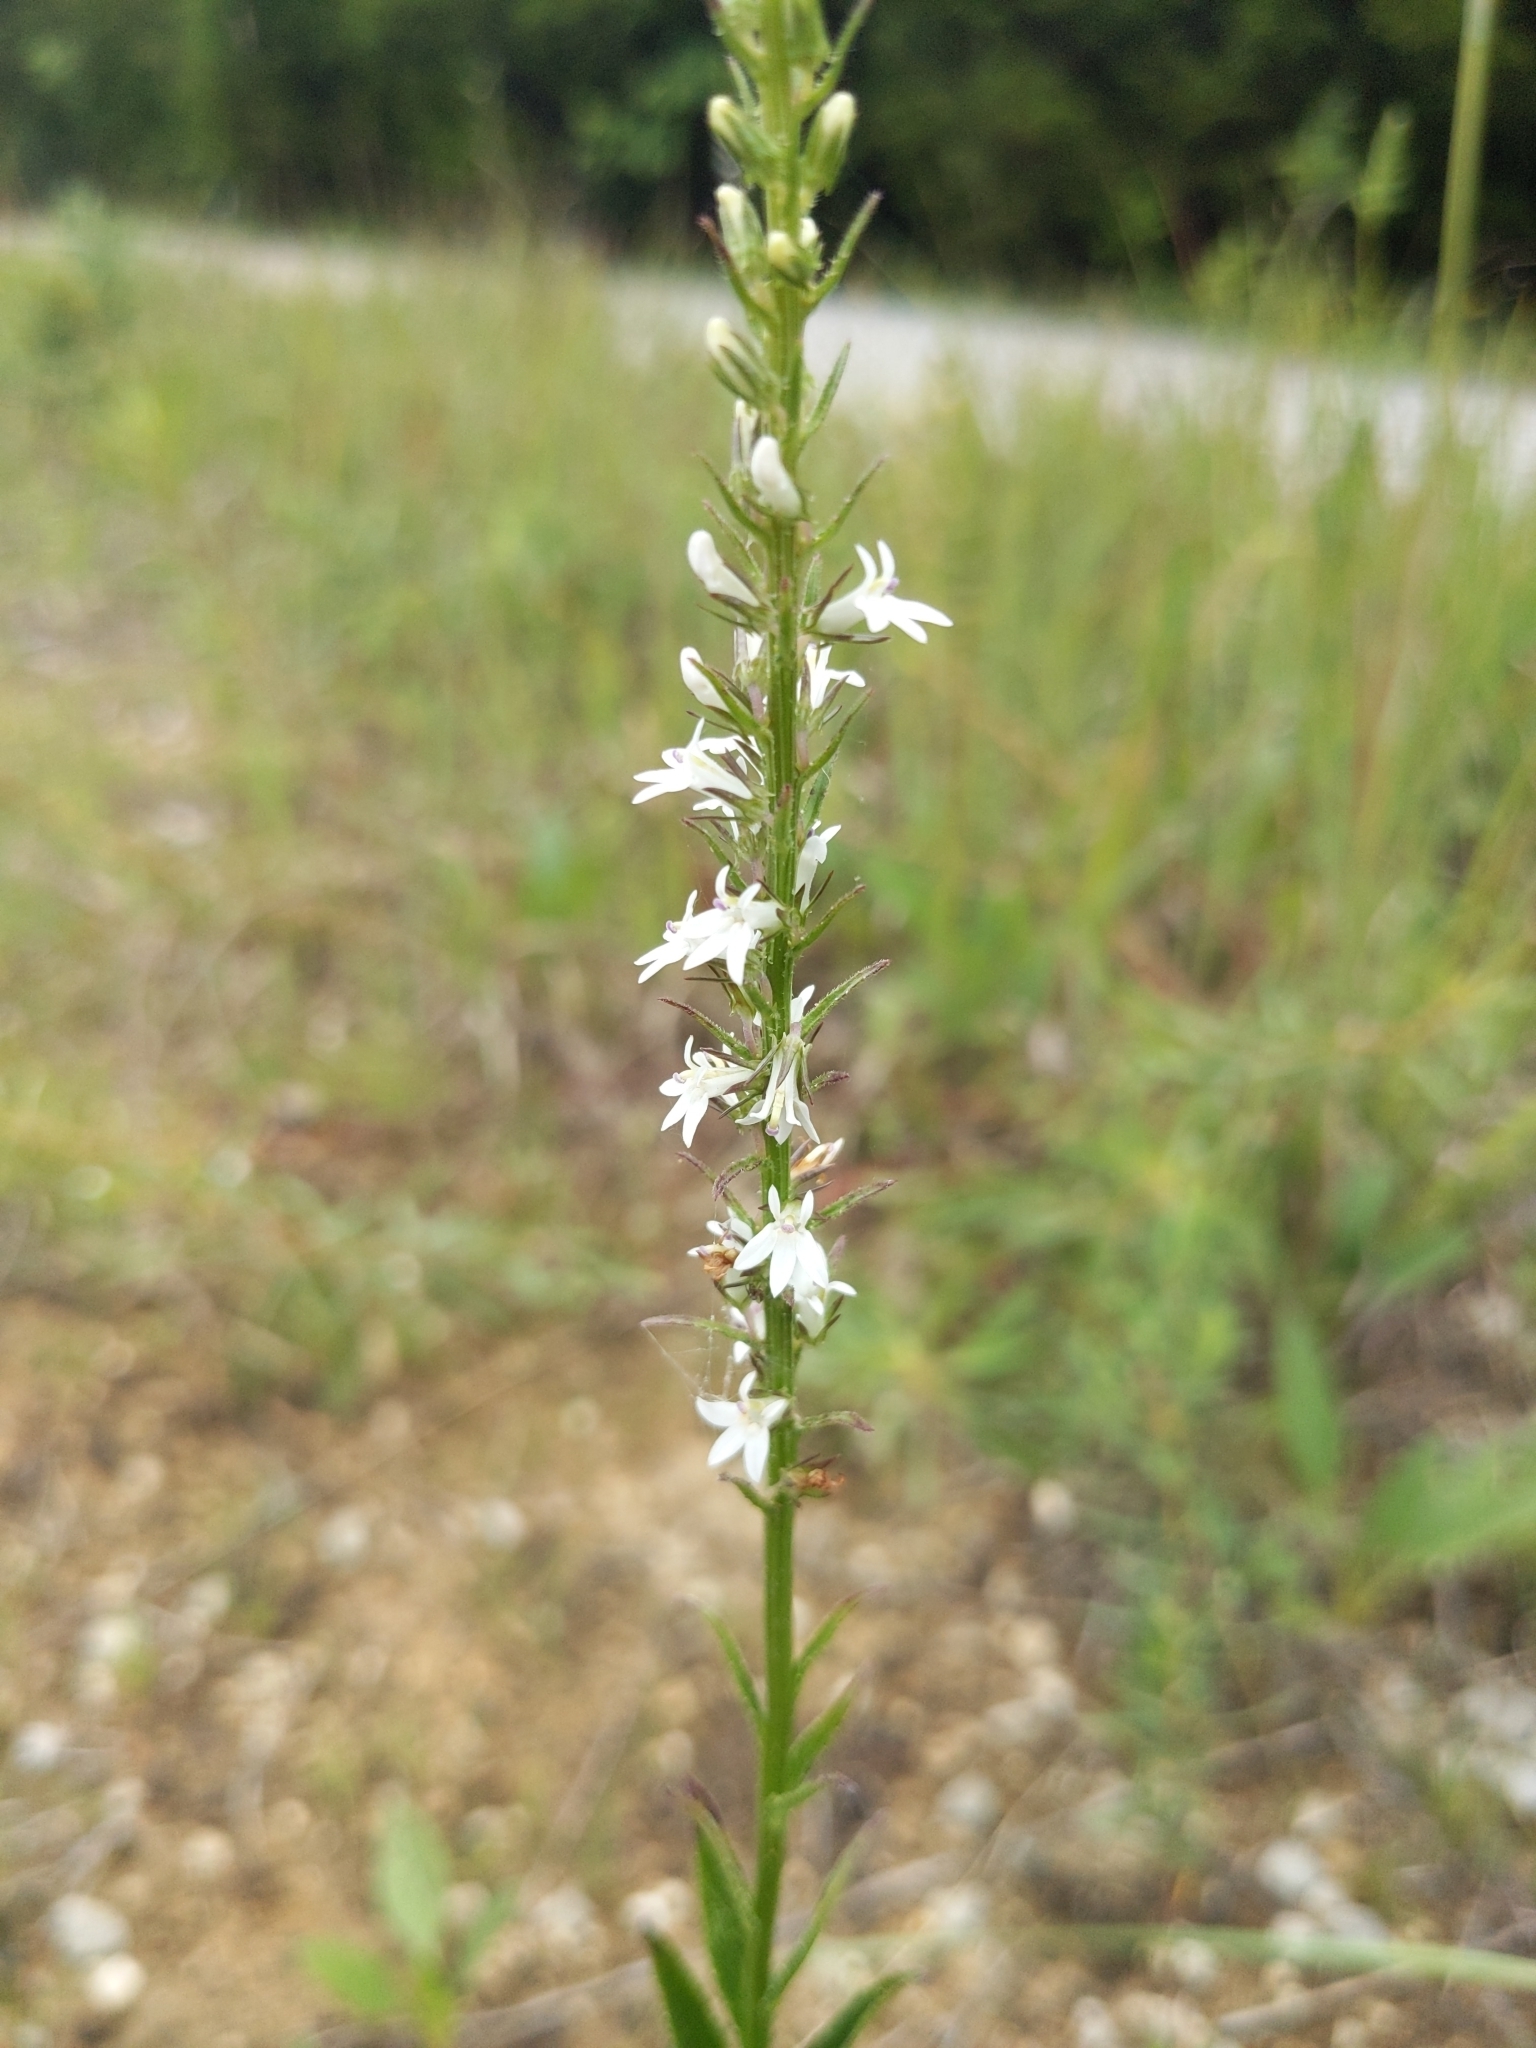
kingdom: Plantae
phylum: Tracheophyta
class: Magnoliopsida
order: Asterales
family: Campanulaceae
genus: Lobelia
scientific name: Lobelia spicata
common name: Pale-spike lobelia
